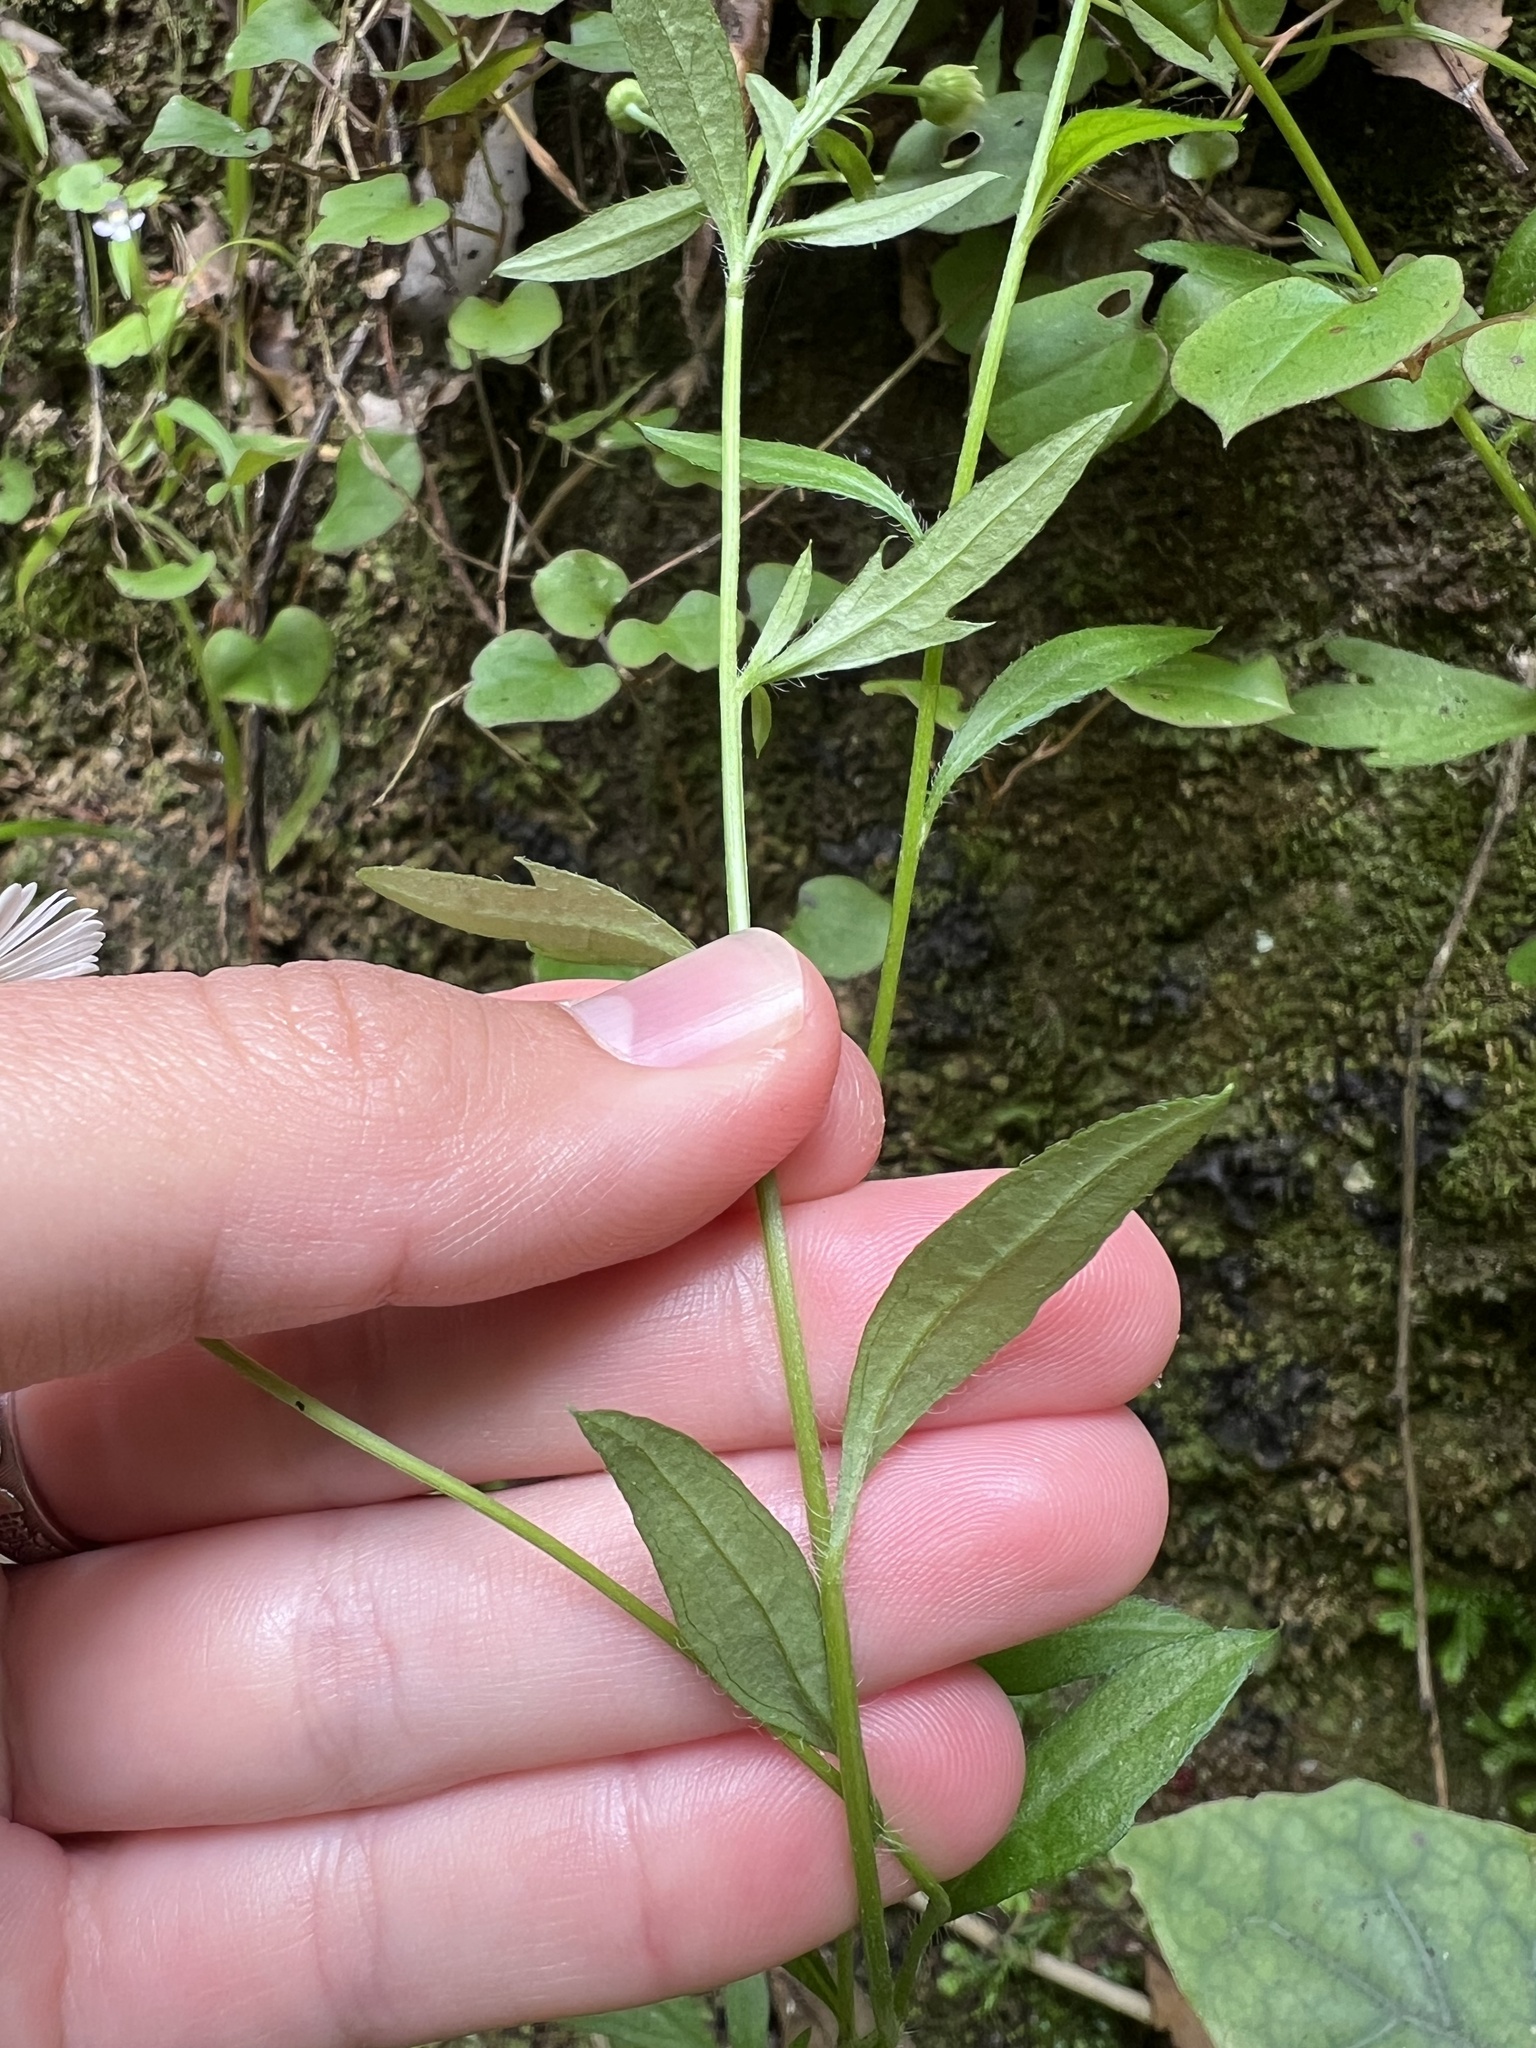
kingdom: Plantae
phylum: Tracheophyta
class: Magnoliopsida
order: Asterales
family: Asteraceae
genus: Erigeron
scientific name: Erigeron karvinskianus
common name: Mexican fleabane
